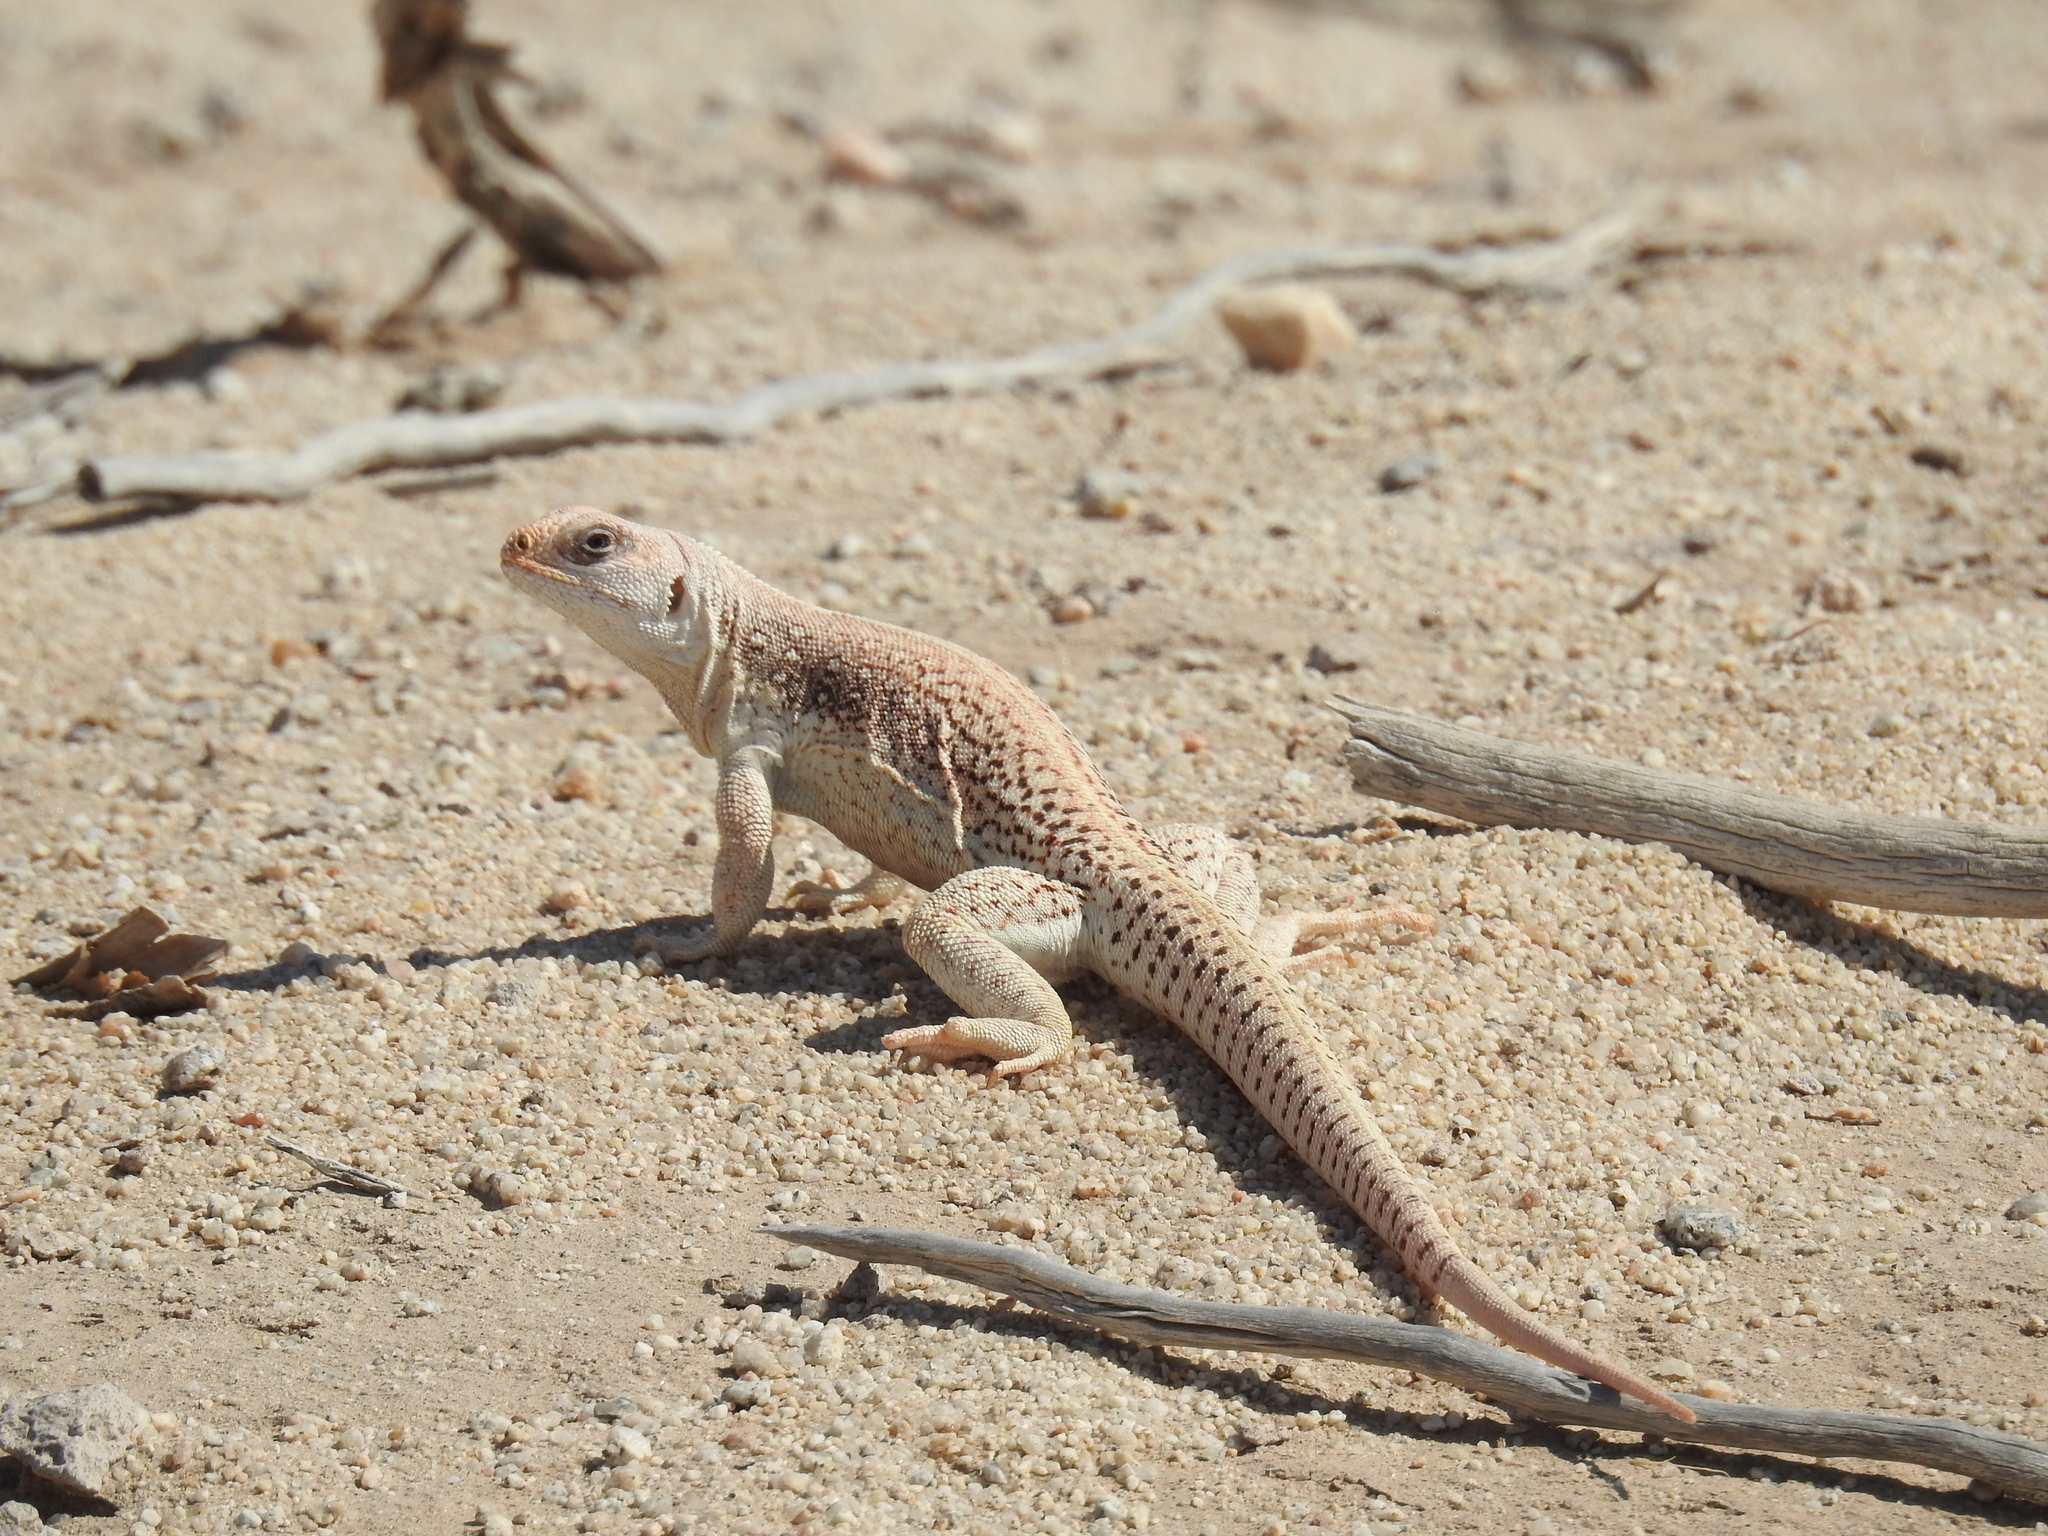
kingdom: Animalia
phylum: Chordata
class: Squamata
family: Iguanidae
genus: Dipsosaurus
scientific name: Dipsosaurus dorsalis
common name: Desert iguana
